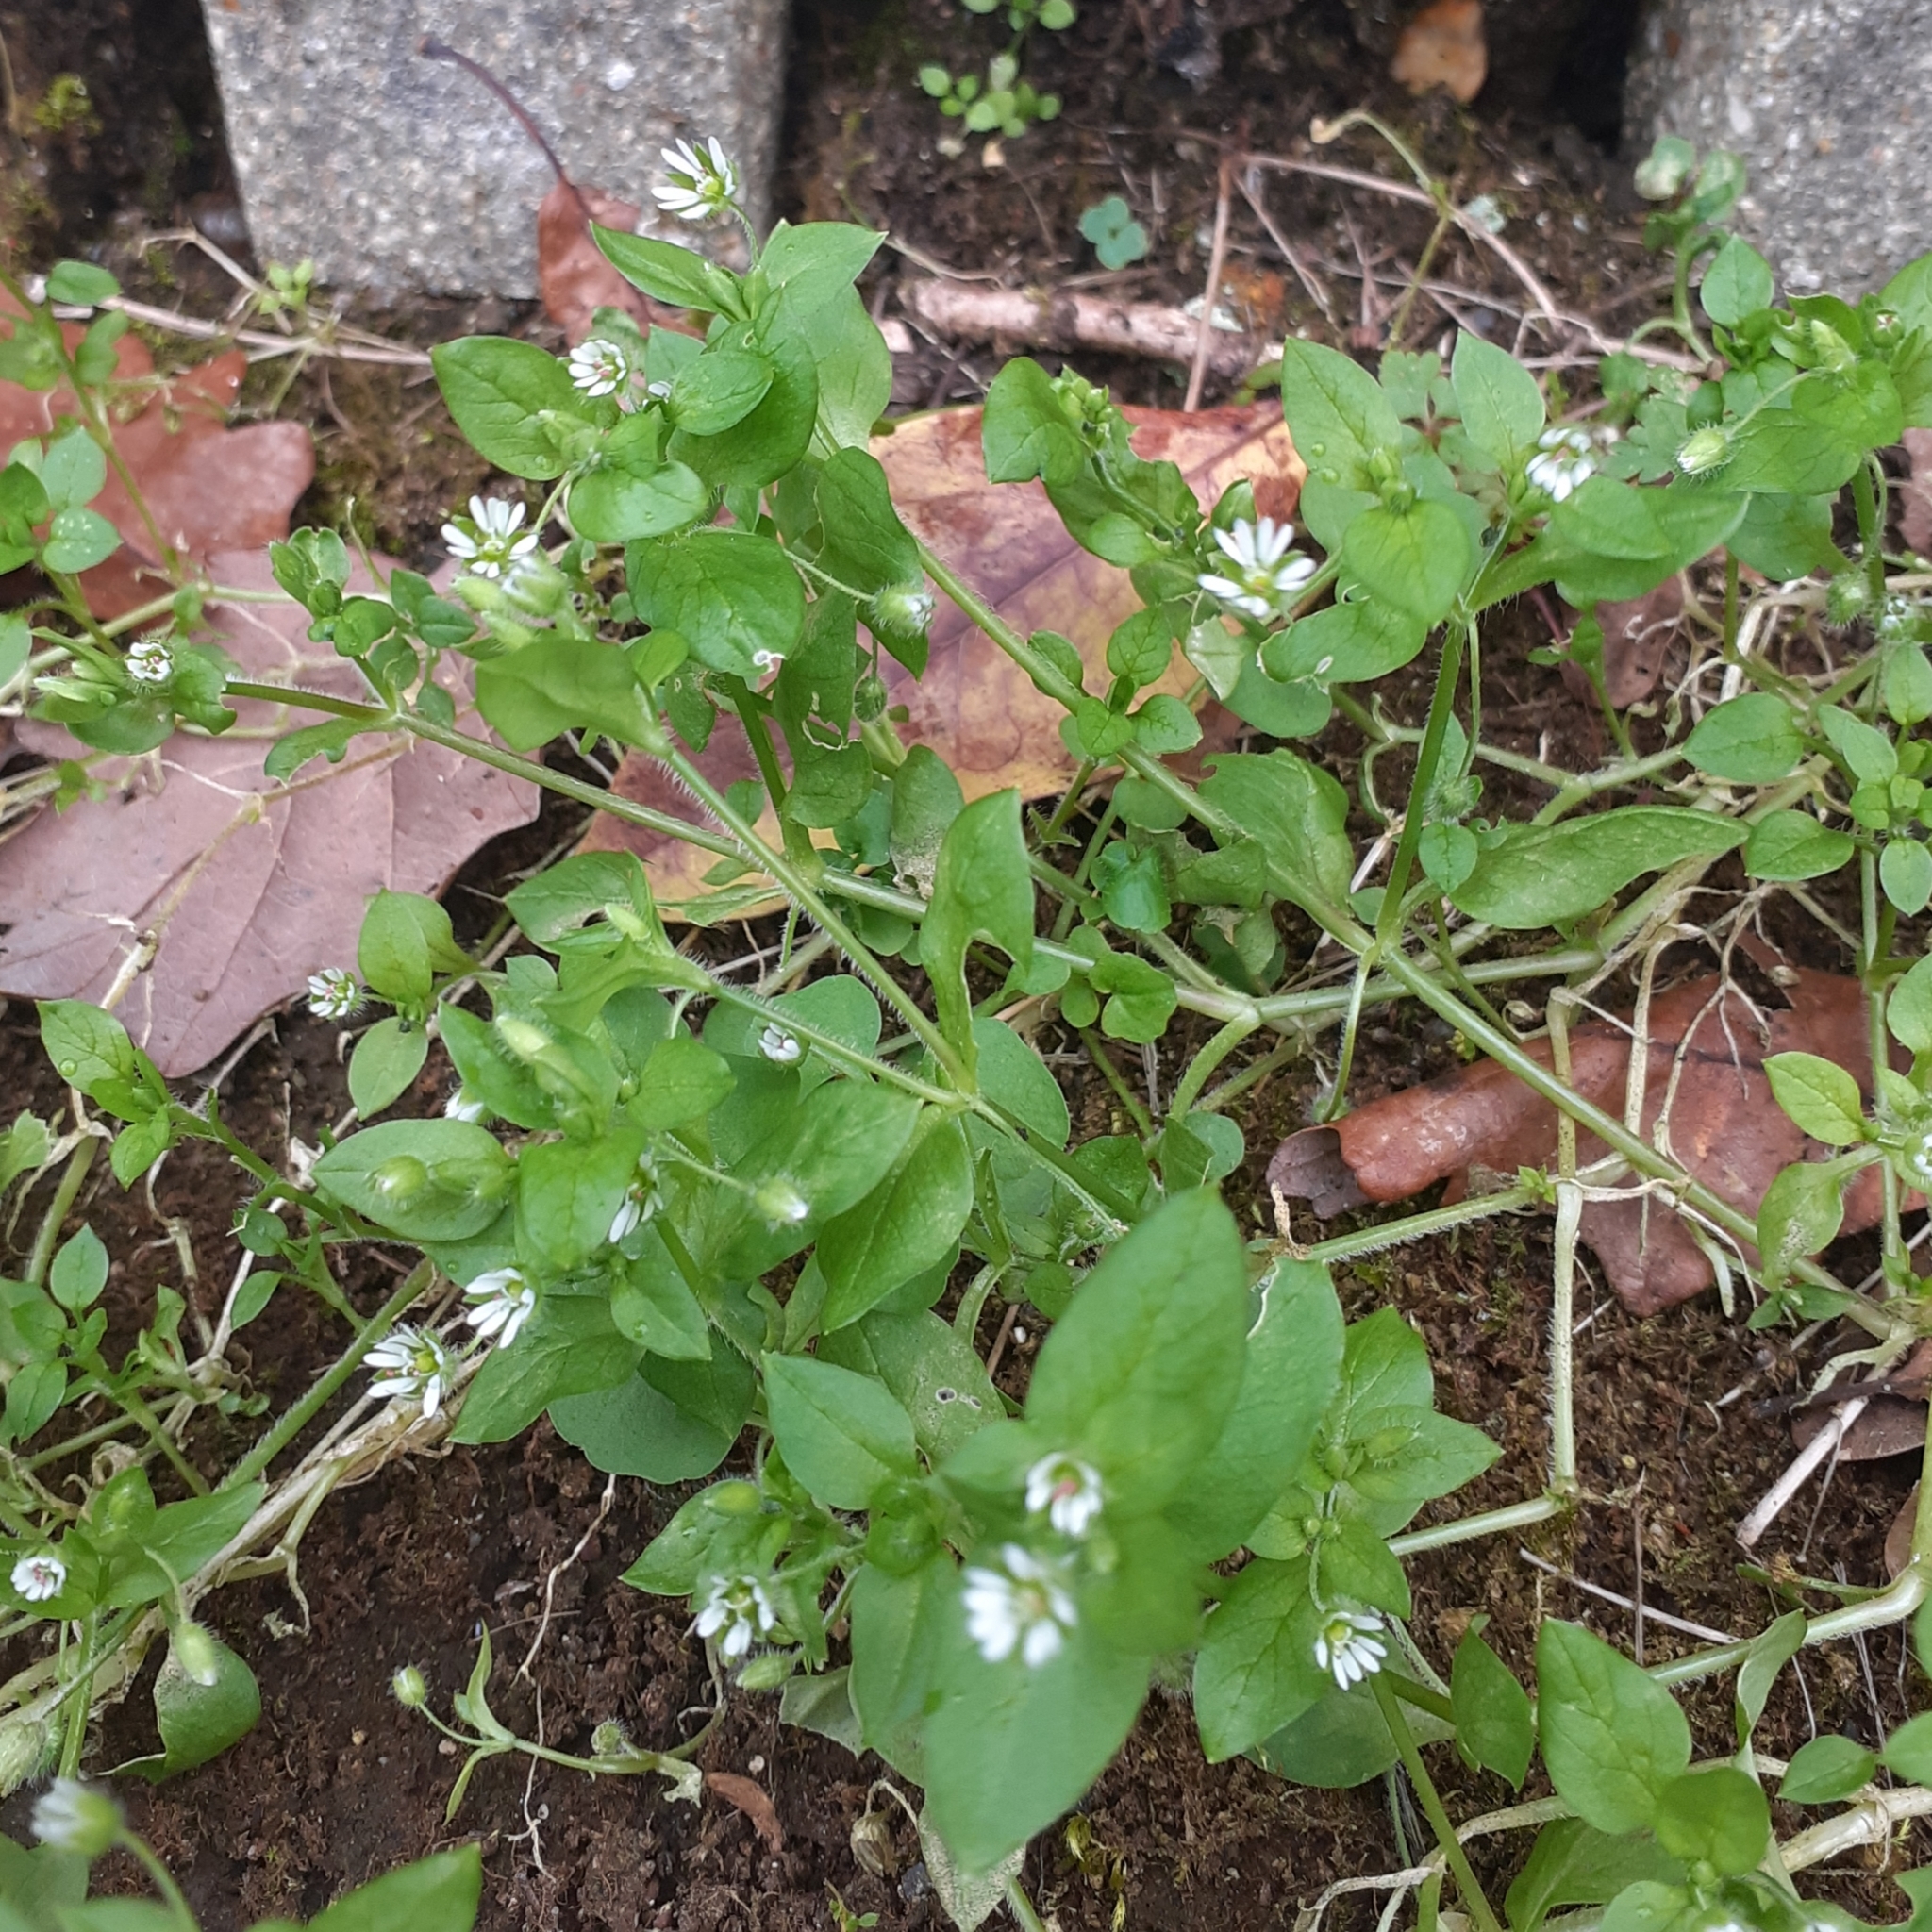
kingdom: Plantae
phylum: Tracheophyta
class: Magnoliopsida
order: Caryophyllales
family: Caryophyllaceae
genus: Stellaria
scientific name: Stellaria media
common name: Common chickweed
